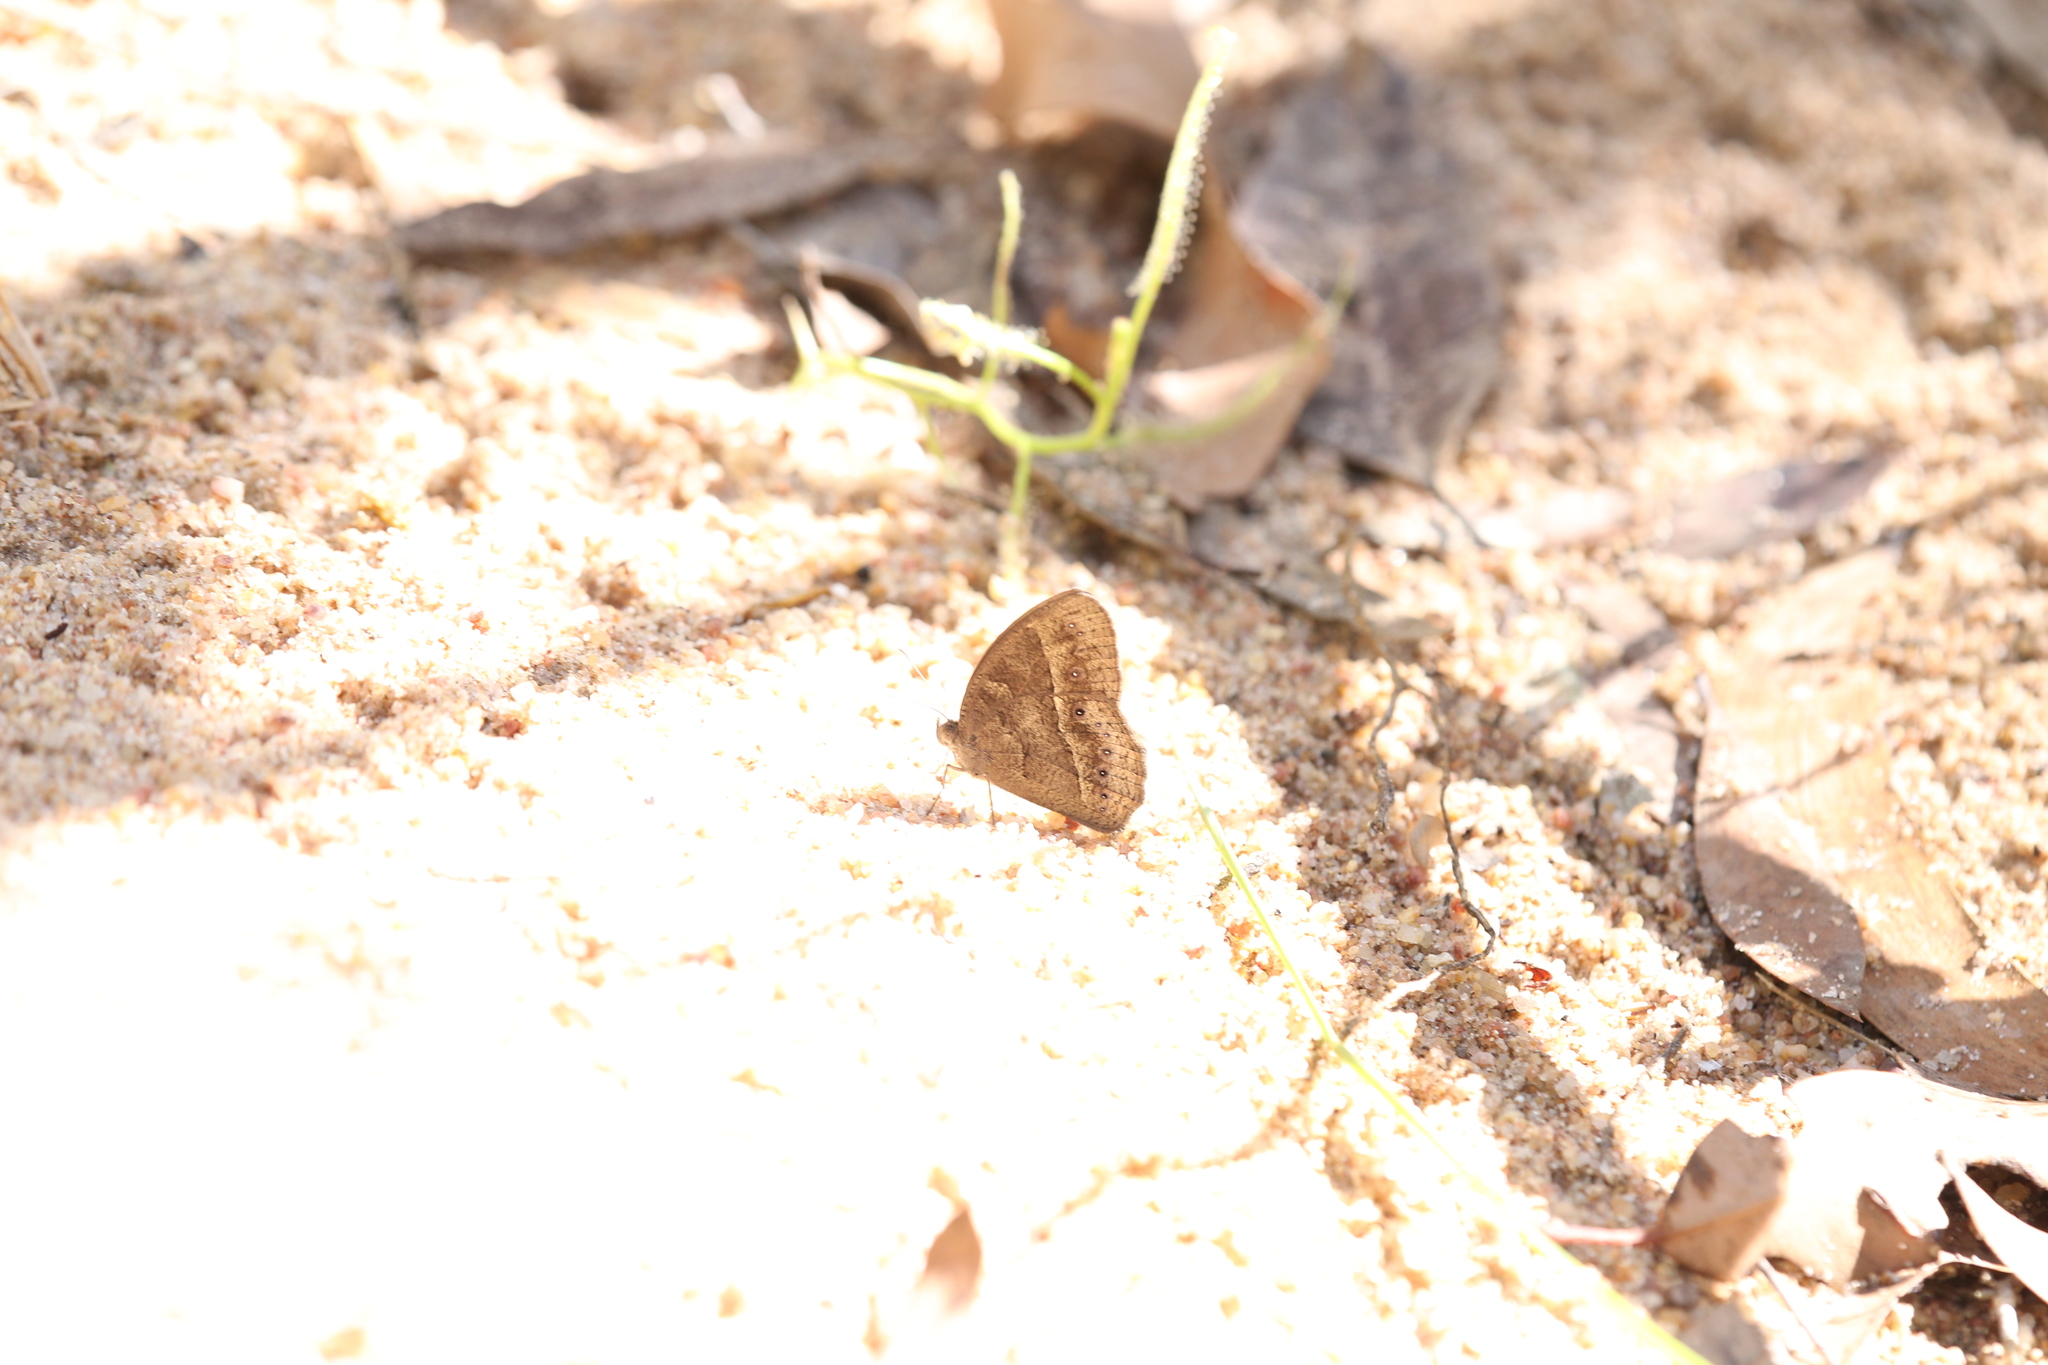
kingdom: Animalia
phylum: Arthropoda
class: Insecta
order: Lepidoptera
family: Nymphalidae
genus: Mycalesis
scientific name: Mycalesis perseus
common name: Dingy bushbrown
